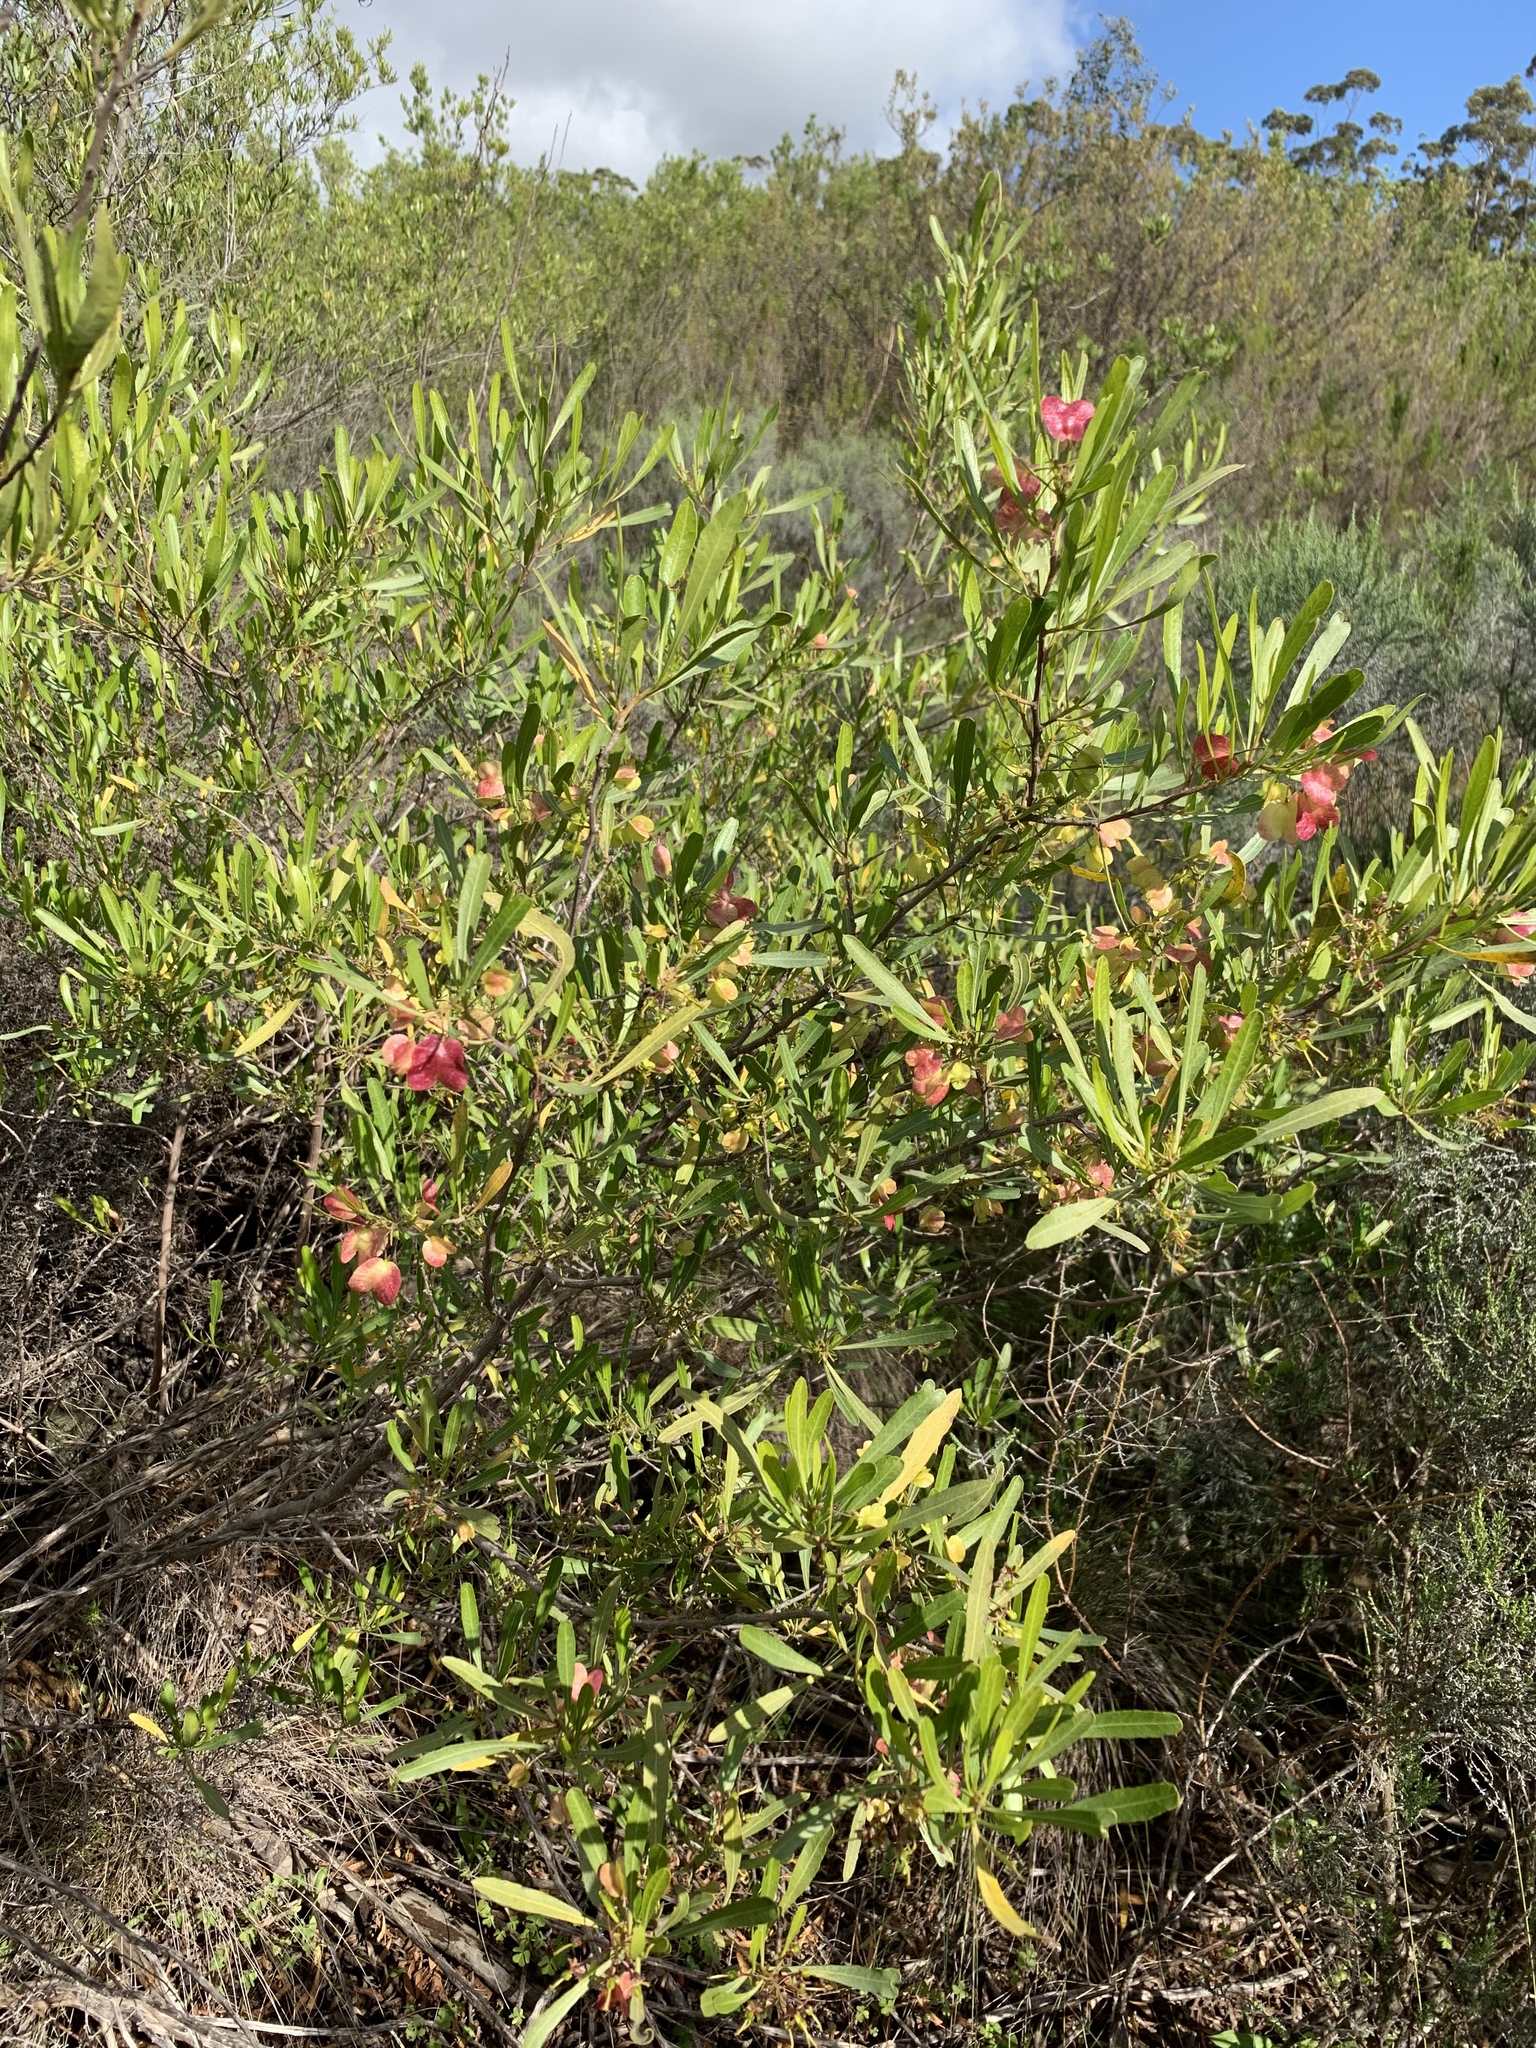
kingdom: Plantae
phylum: Tracheophyta
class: Magnoliopsida
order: Sapindales
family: Sapindaceae
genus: Dodonaea
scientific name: Dodonaea viscosa
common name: Hopbush
